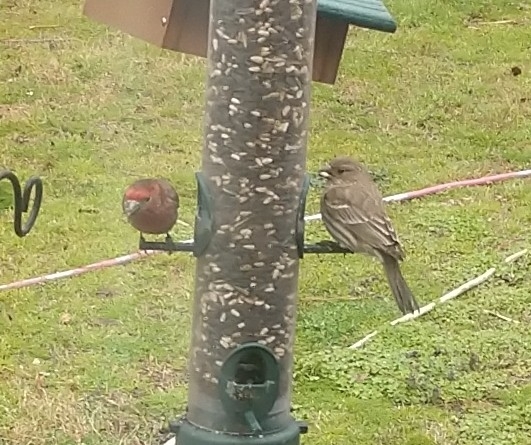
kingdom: Animalia
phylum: Chordata
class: Aves
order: Passeriformes
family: Fringillidae
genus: Haemorhous
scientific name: Haemorhous mexicanus
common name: House finch
